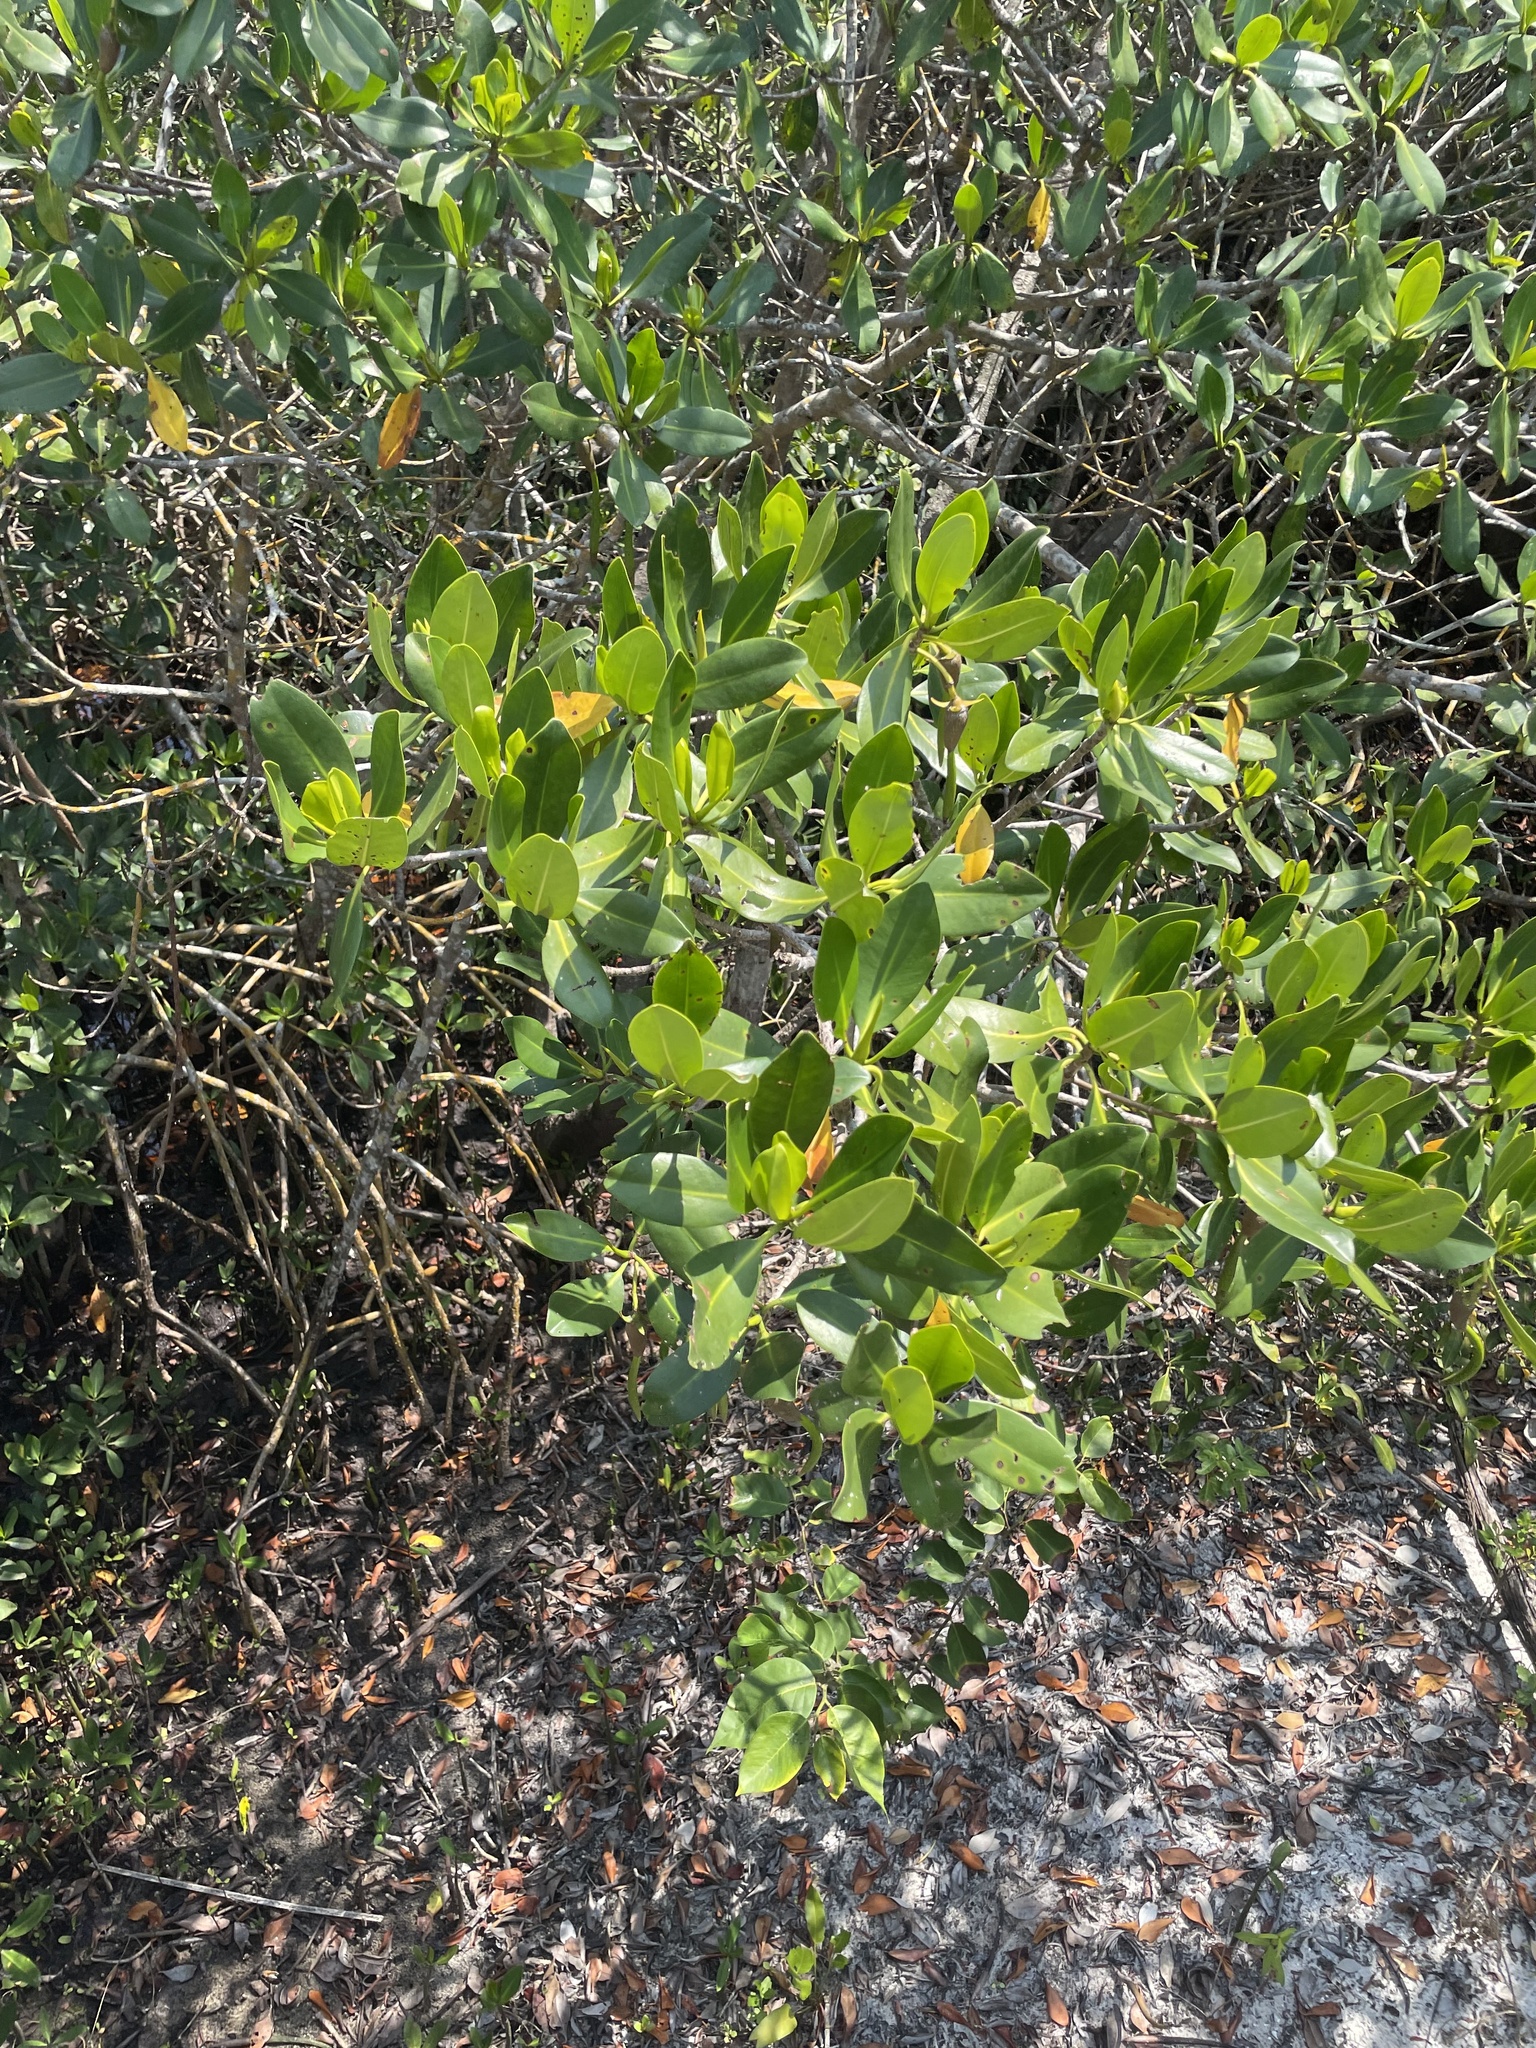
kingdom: Plantae
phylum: Tracheophyta
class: Magnoliopsida
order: Malpighiales
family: Rhizophoraceae
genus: Rhizophora
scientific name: Rhizophora mangle
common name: Red mangrove
